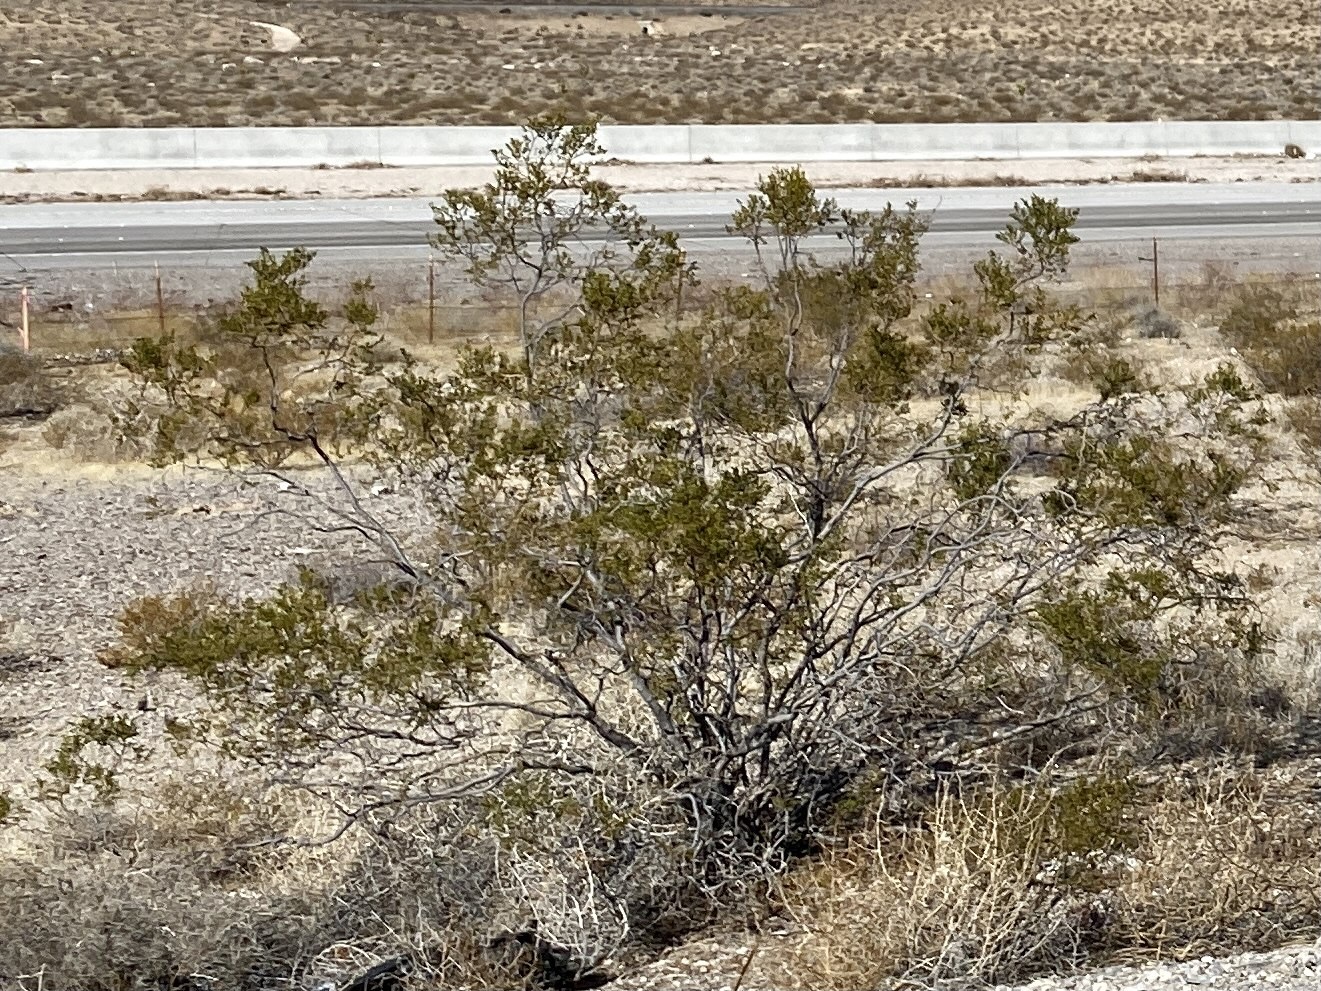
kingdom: Plantae
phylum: Tracheophyta
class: Magnoliopsida
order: Zygophyllales
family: Zygophyllaceae
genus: Larrea
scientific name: Larrea tridentata
